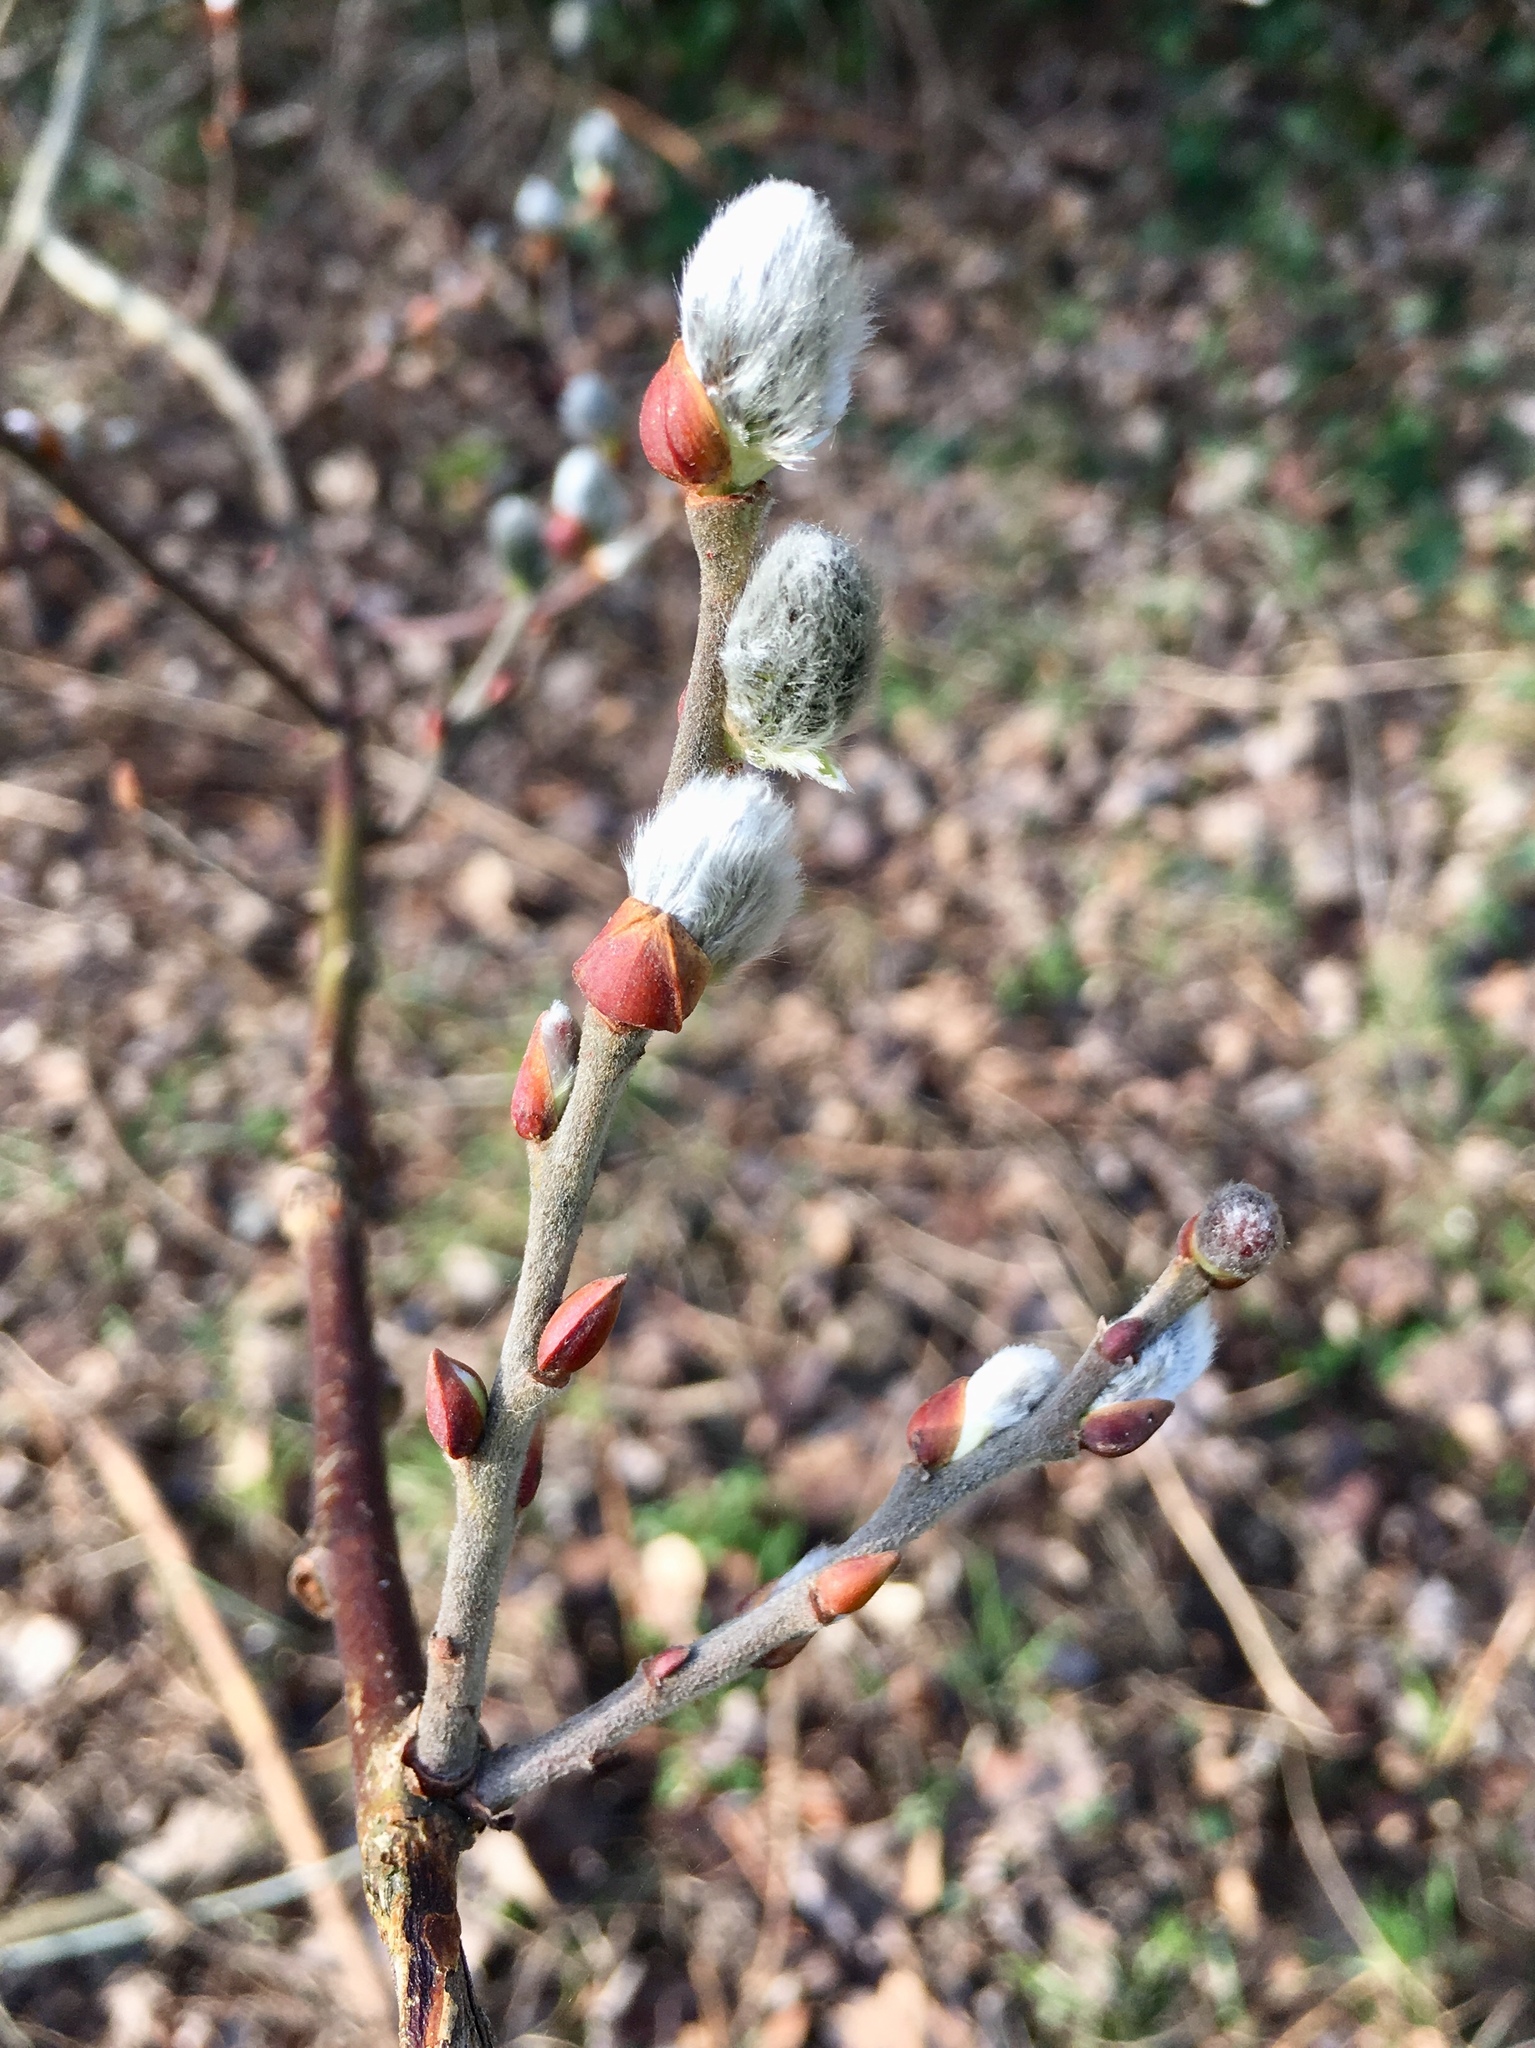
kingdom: Plantae
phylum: Tracheophyta
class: Magnoliopsida
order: Malpighiales
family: Salicaceae
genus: Salix
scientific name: Salix caprea
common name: Goat willow
